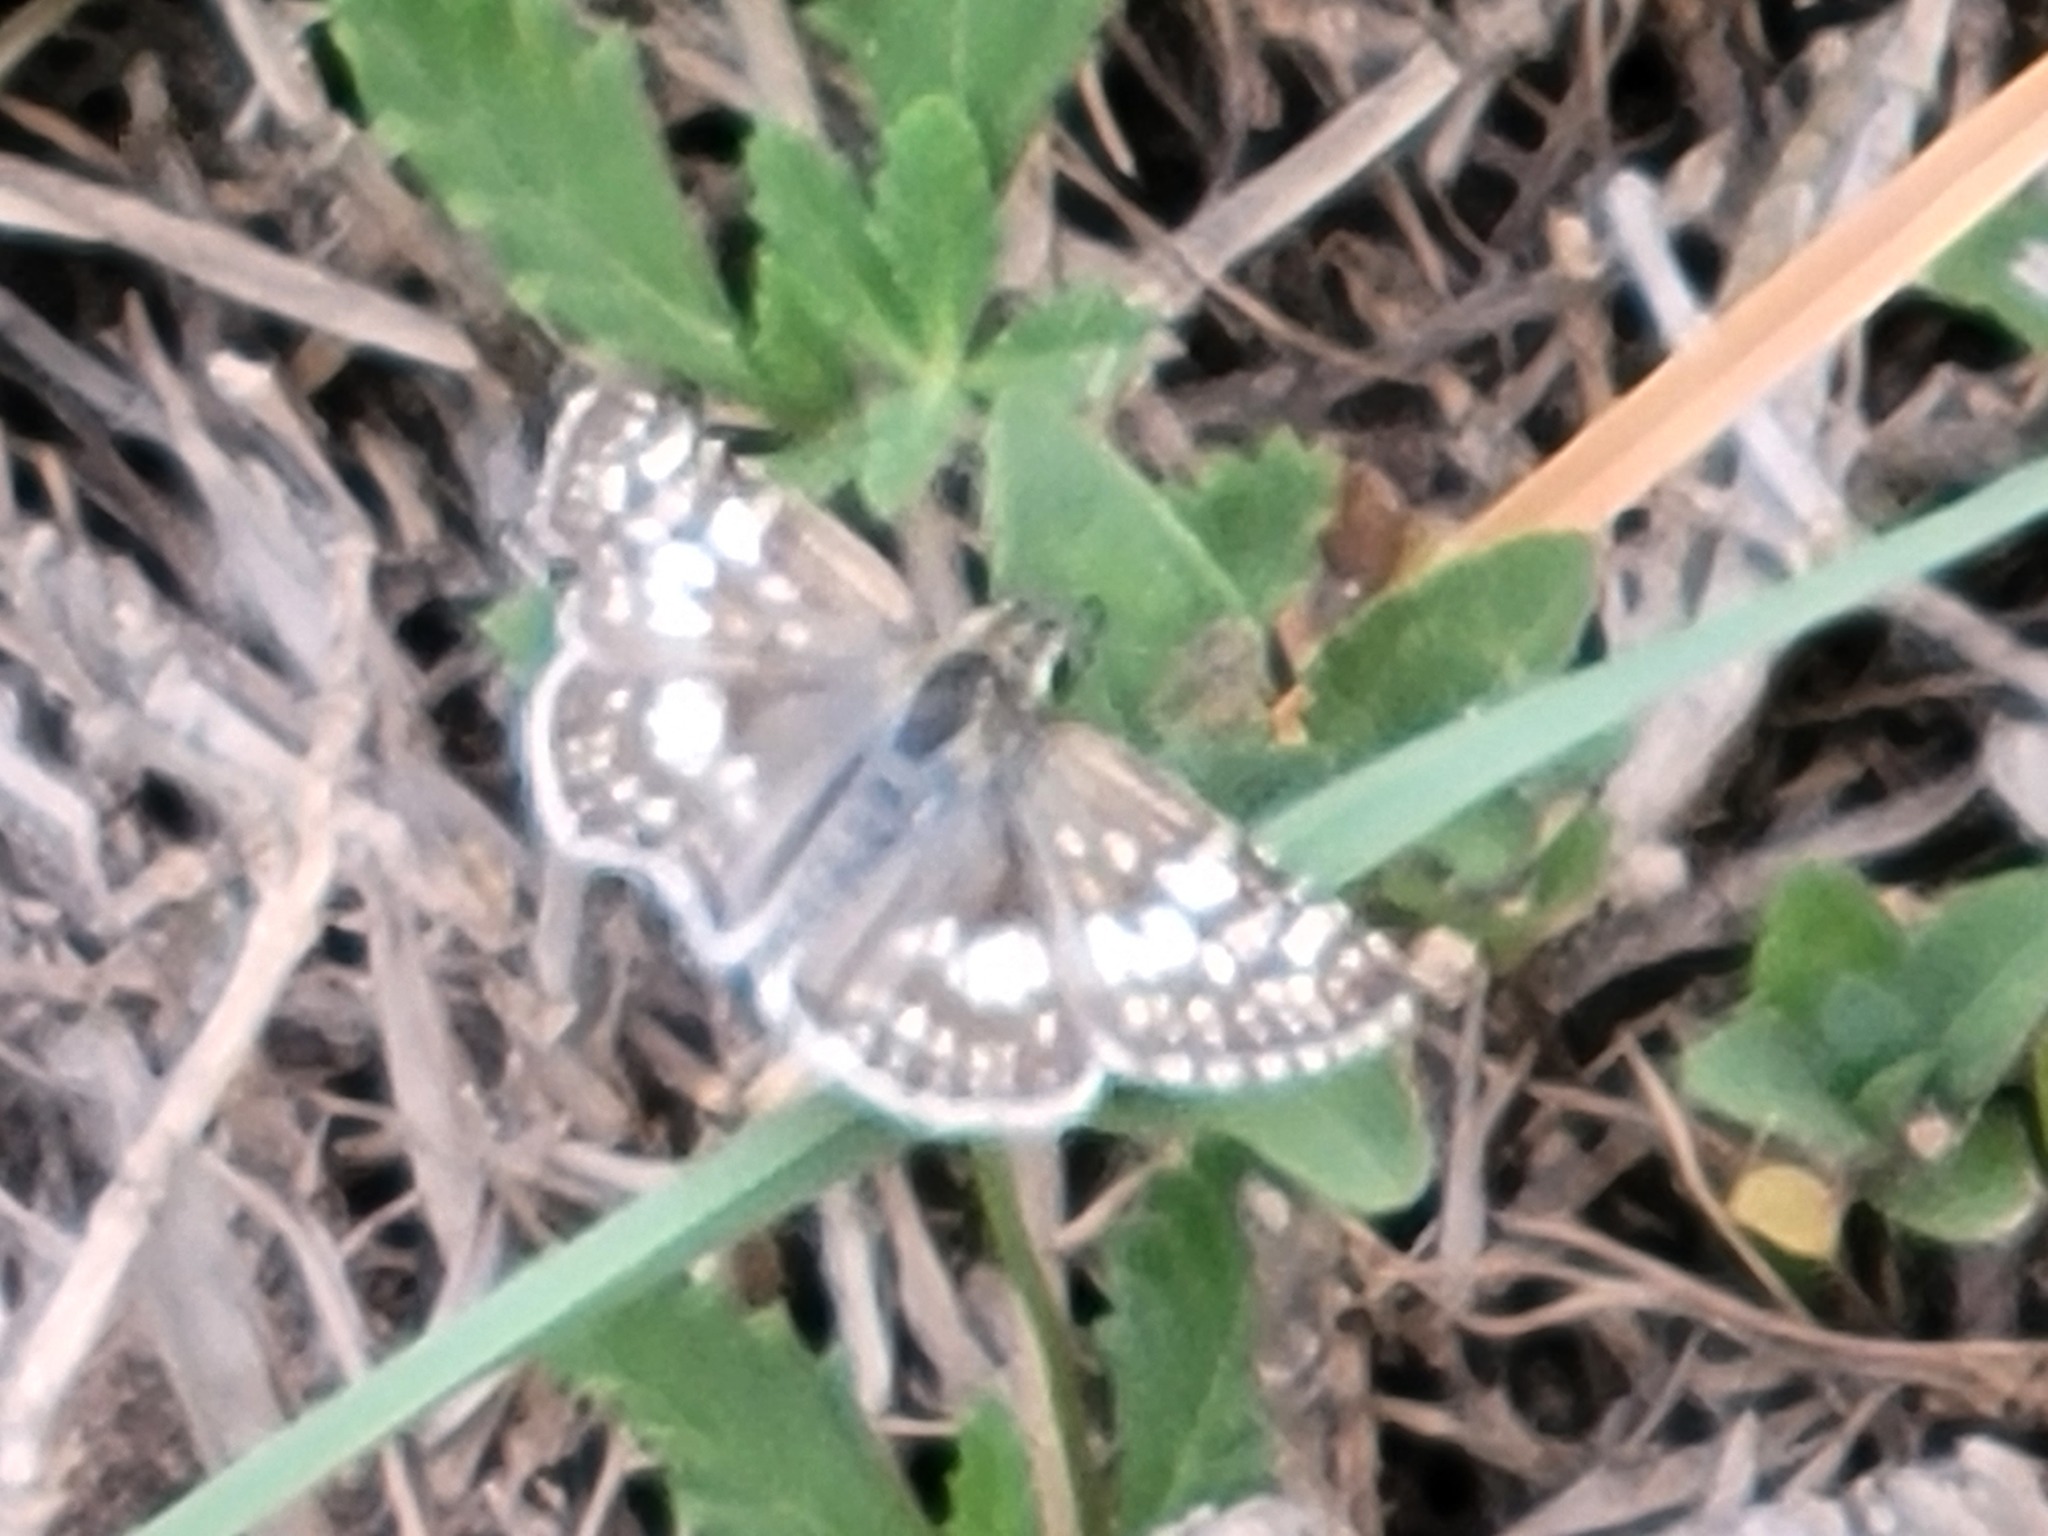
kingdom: Animalia
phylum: Arthropoda
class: Insecta
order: Lepidoptera
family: Hesperiidae
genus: Burnsius
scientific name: Burnsius albezens
